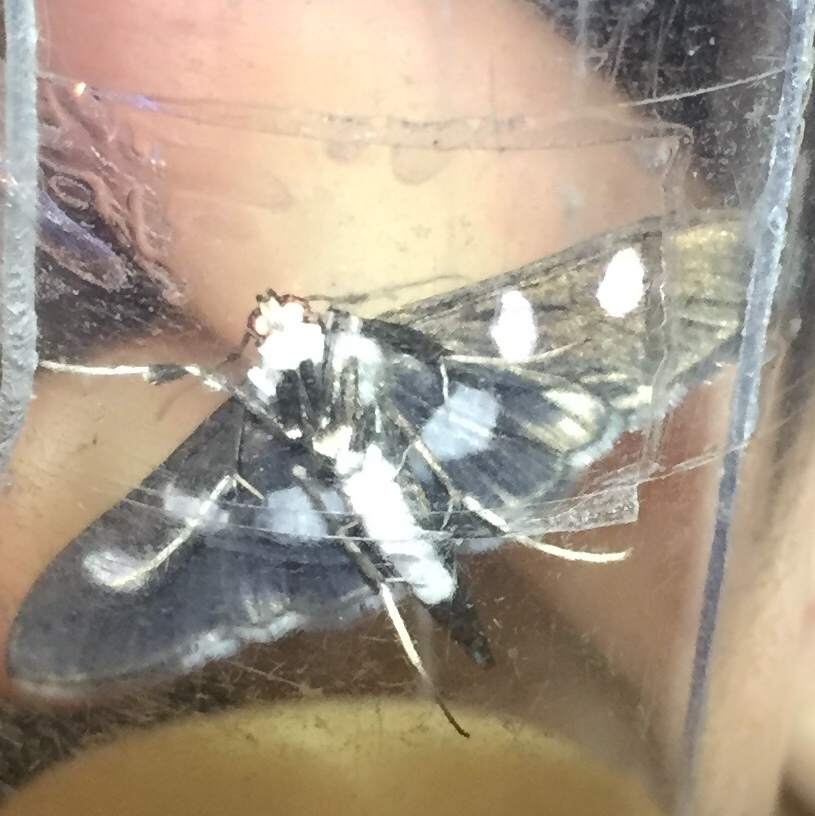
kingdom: Animalia
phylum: Arthropoda
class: Insecta
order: Lepidoptera
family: Crambidae
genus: Desmia
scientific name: Desmia funeralis
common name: Grape leaf folder moth
